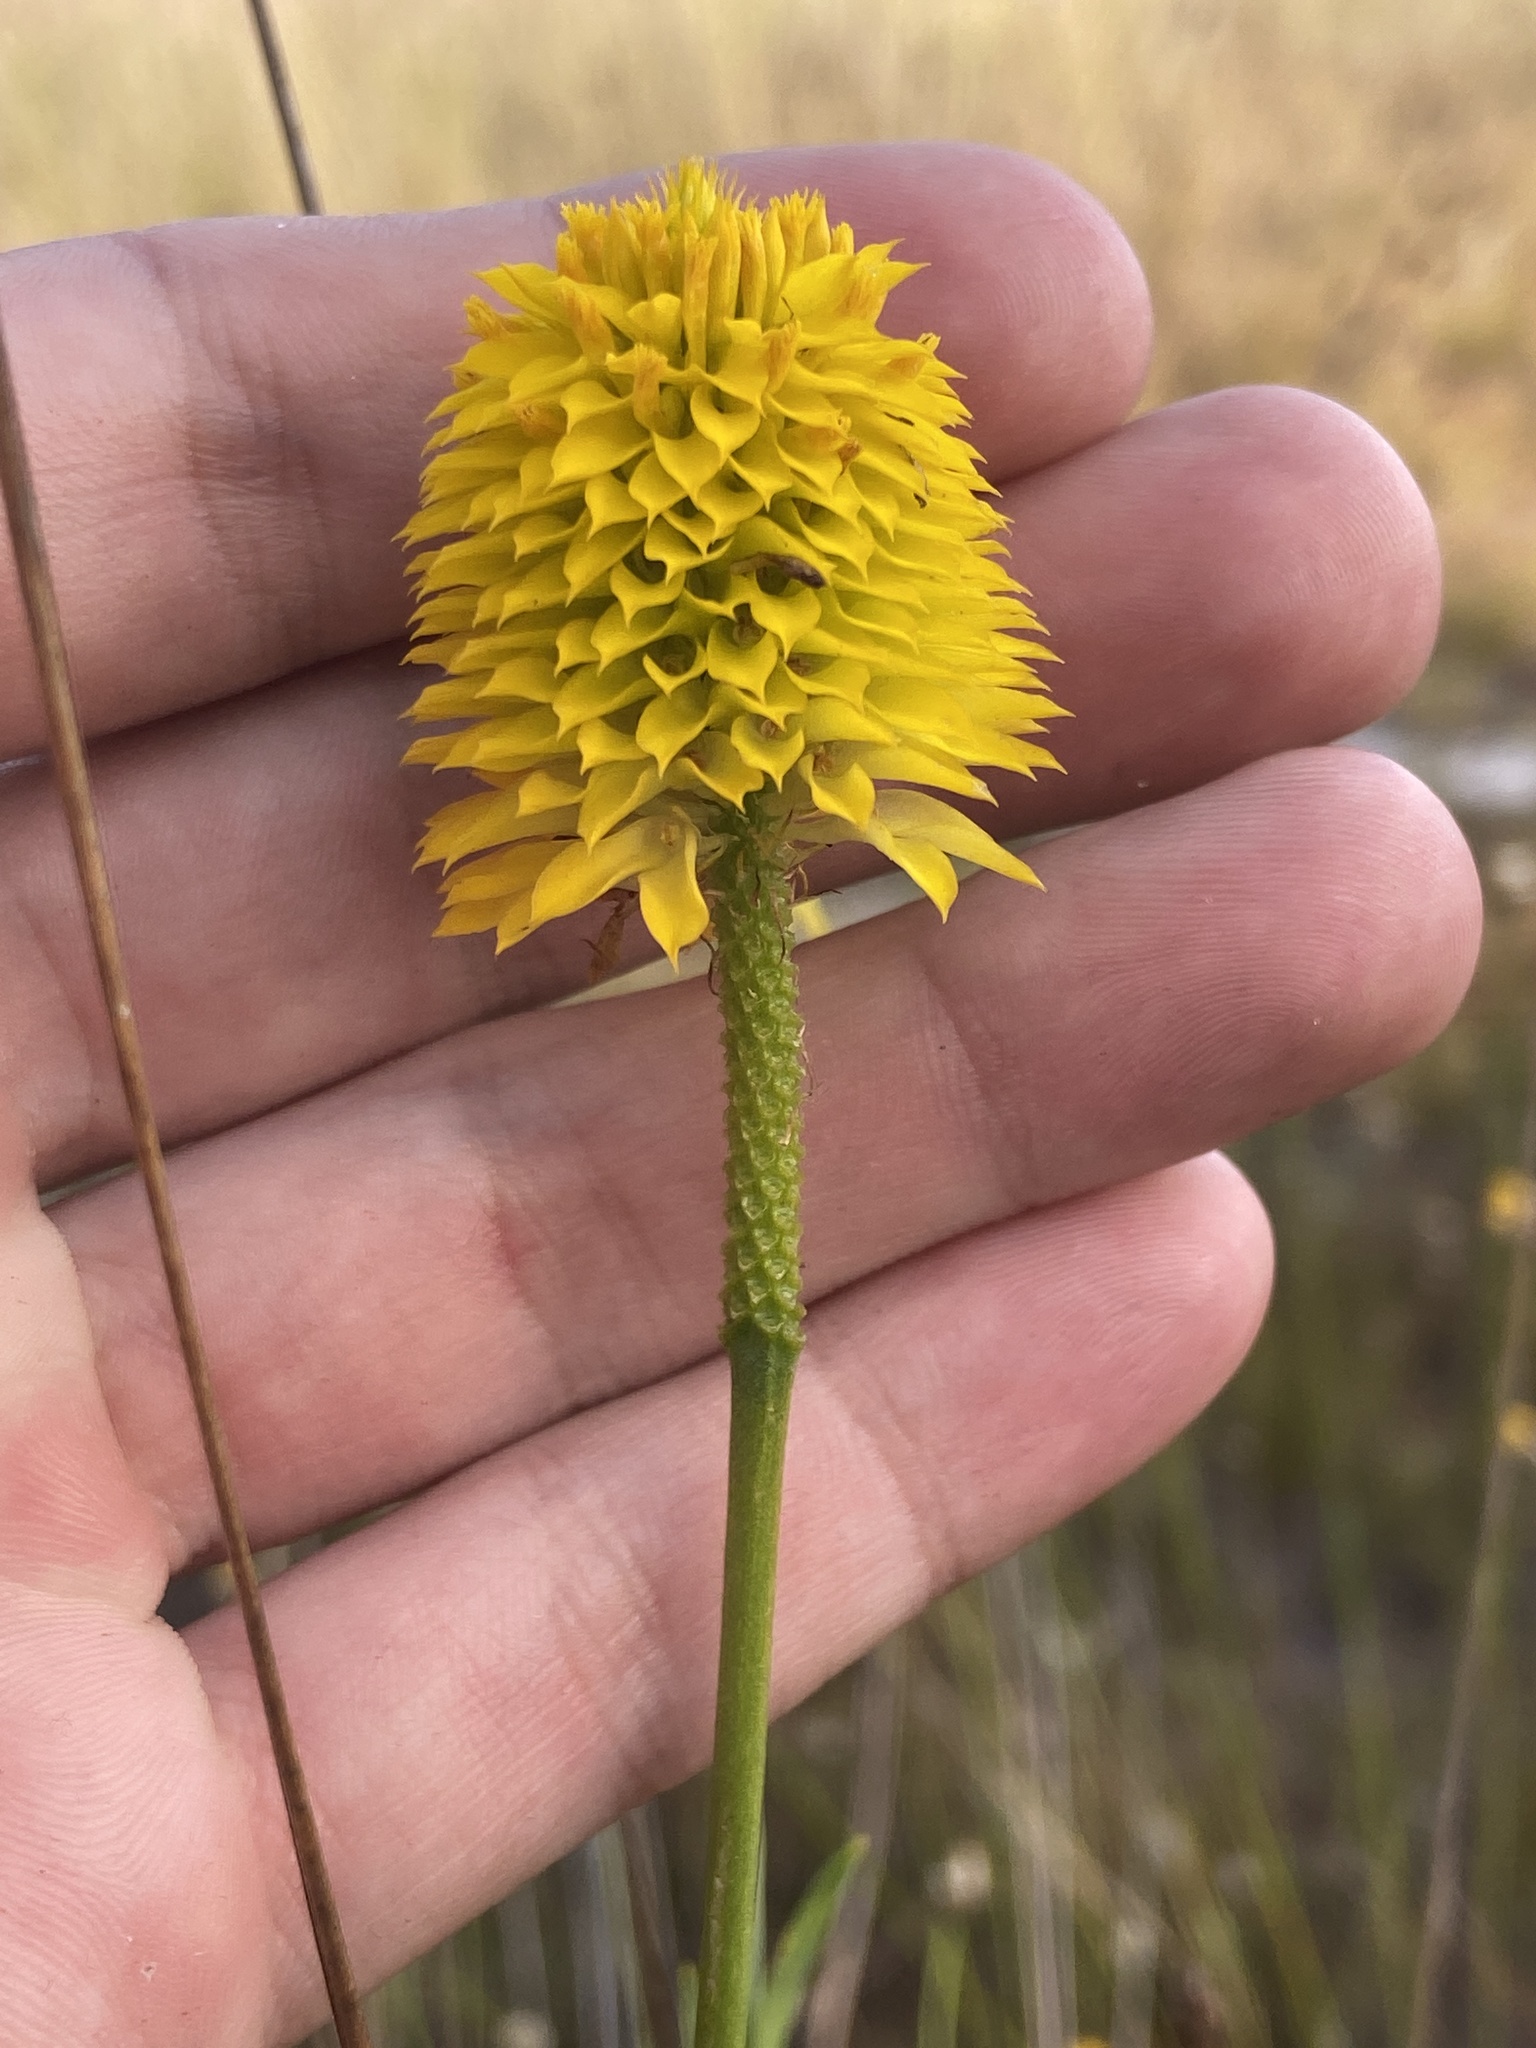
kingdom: Plantae
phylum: Tracheophyta
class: Magnoliopsida
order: Fabales
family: Polygalaceae
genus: Polygala
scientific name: Polygala rugelii
